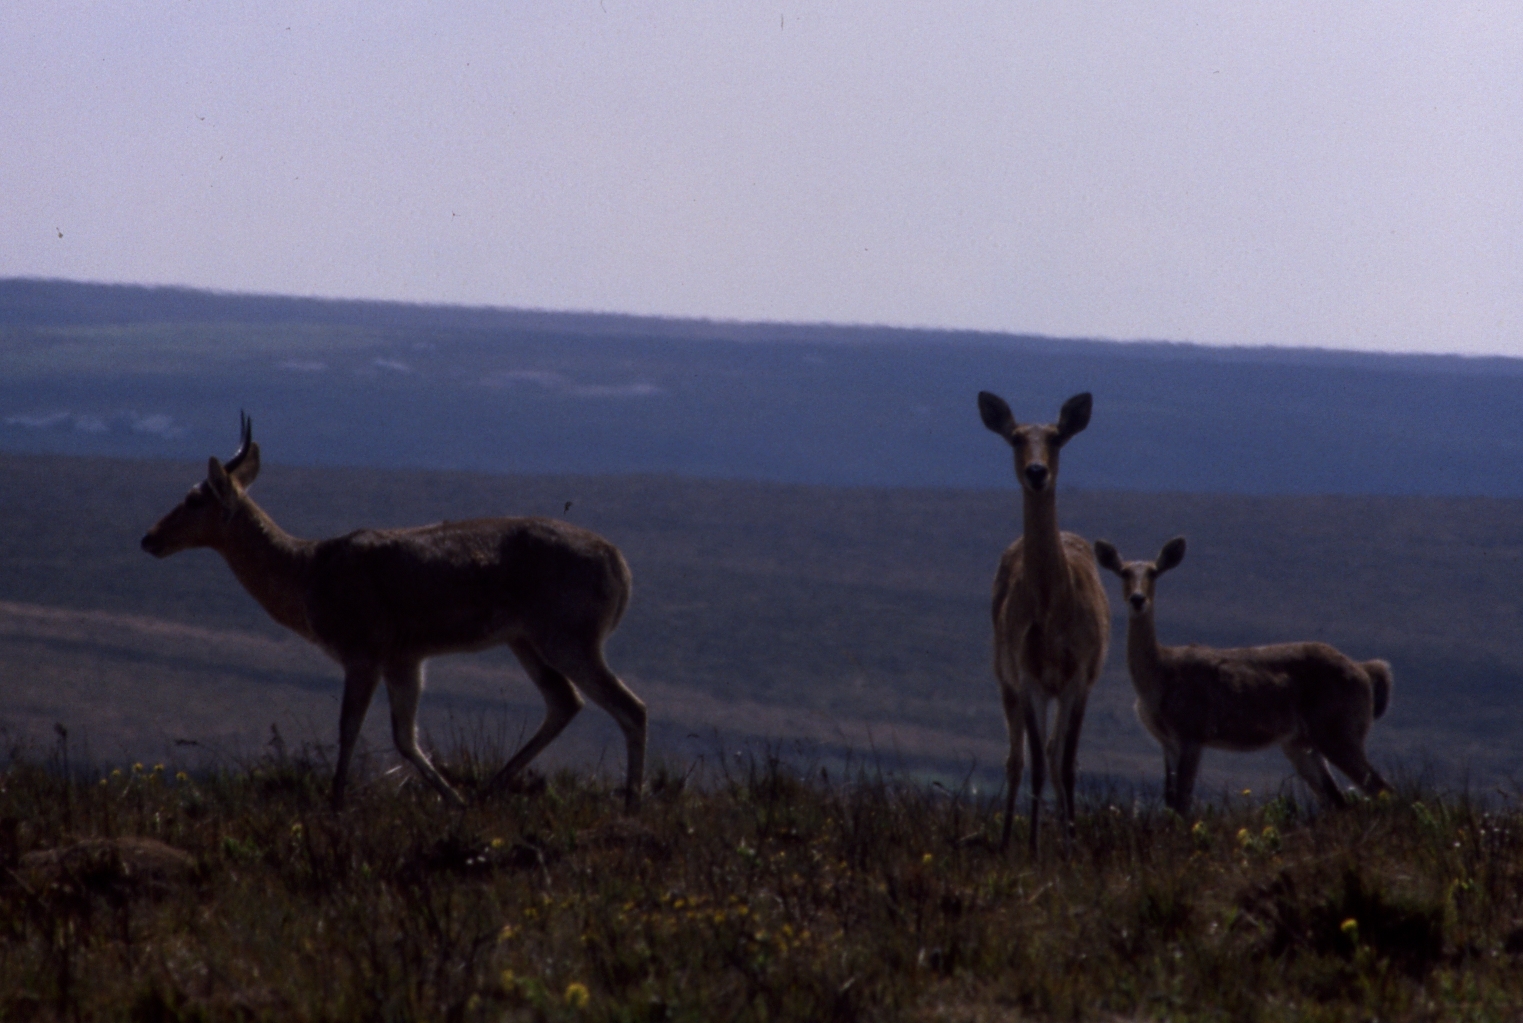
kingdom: Animalia
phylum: Chordata
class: Mammalia
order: Artiodactyla
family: Bovidae
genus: Redunca
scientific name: Redunca arundinum
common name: Southern reedbuck
